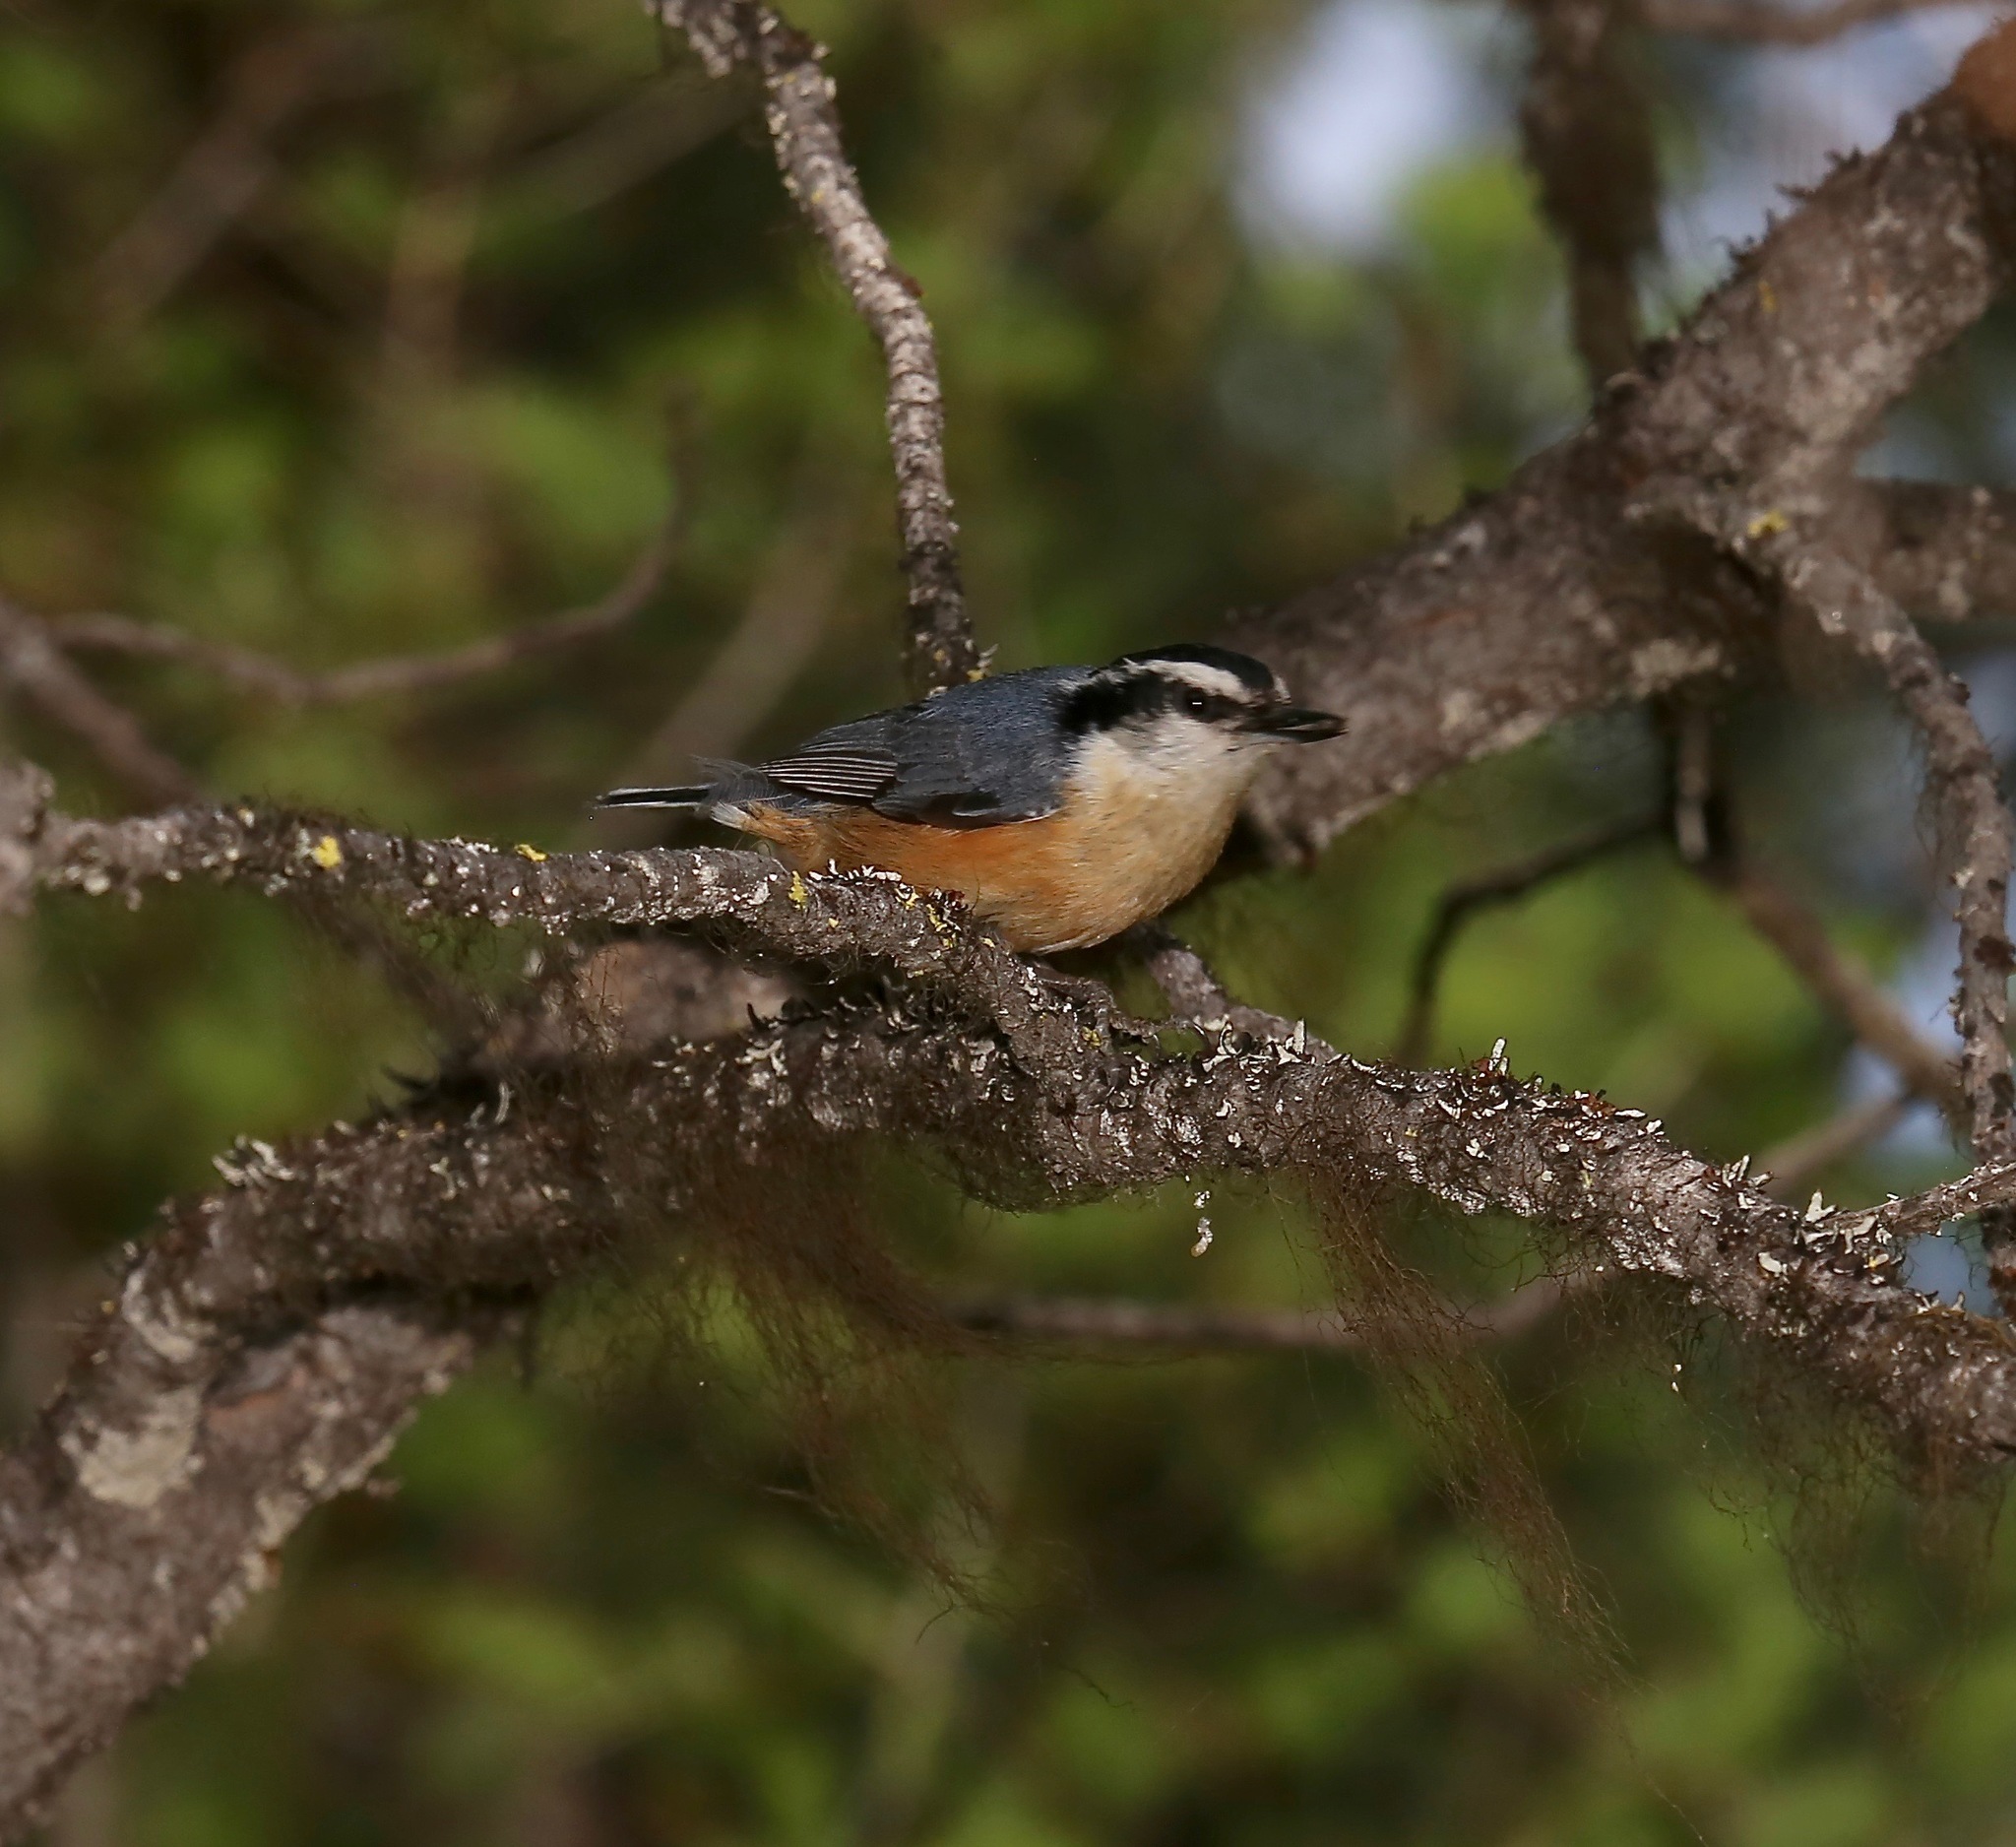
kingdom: Animalia
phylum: Chordata
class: Aves
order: Passeriformes
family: Sittidae
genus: Sitta
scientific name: Sitta canadensis
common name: Red-breasted nuthatch
